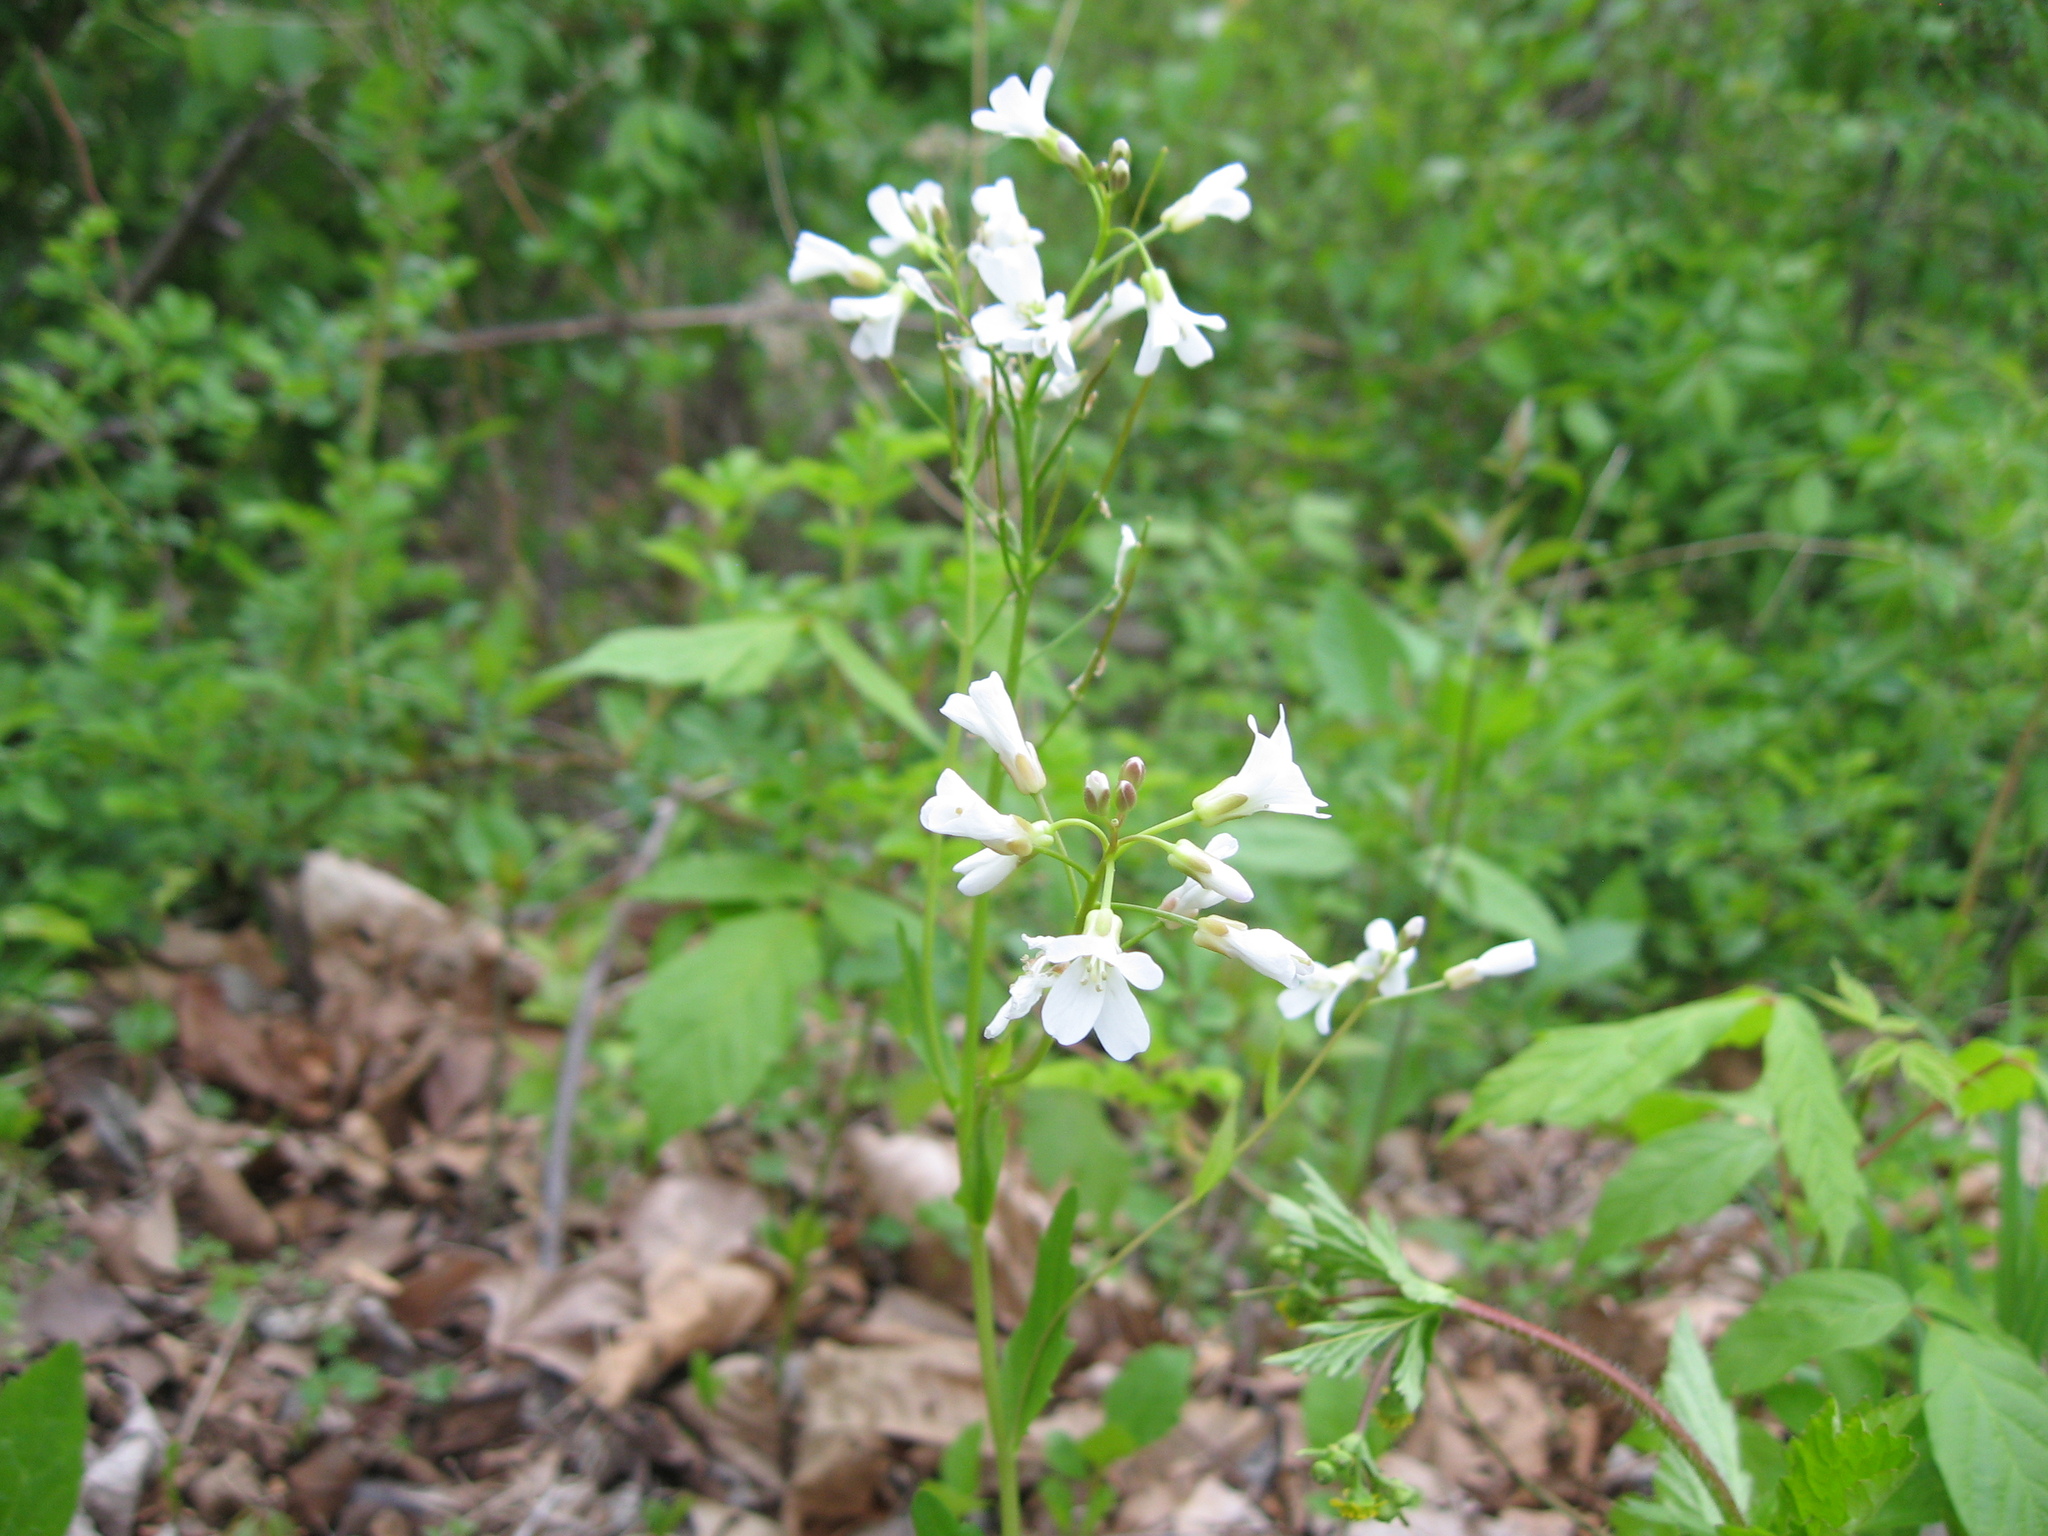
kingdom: Plantae
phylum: Tracheophyta
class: Magnoliopsida
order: Brassicales
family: Brassicaceae
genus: Cardamine
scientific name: Cardamine bulbosa
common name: Spring cress
